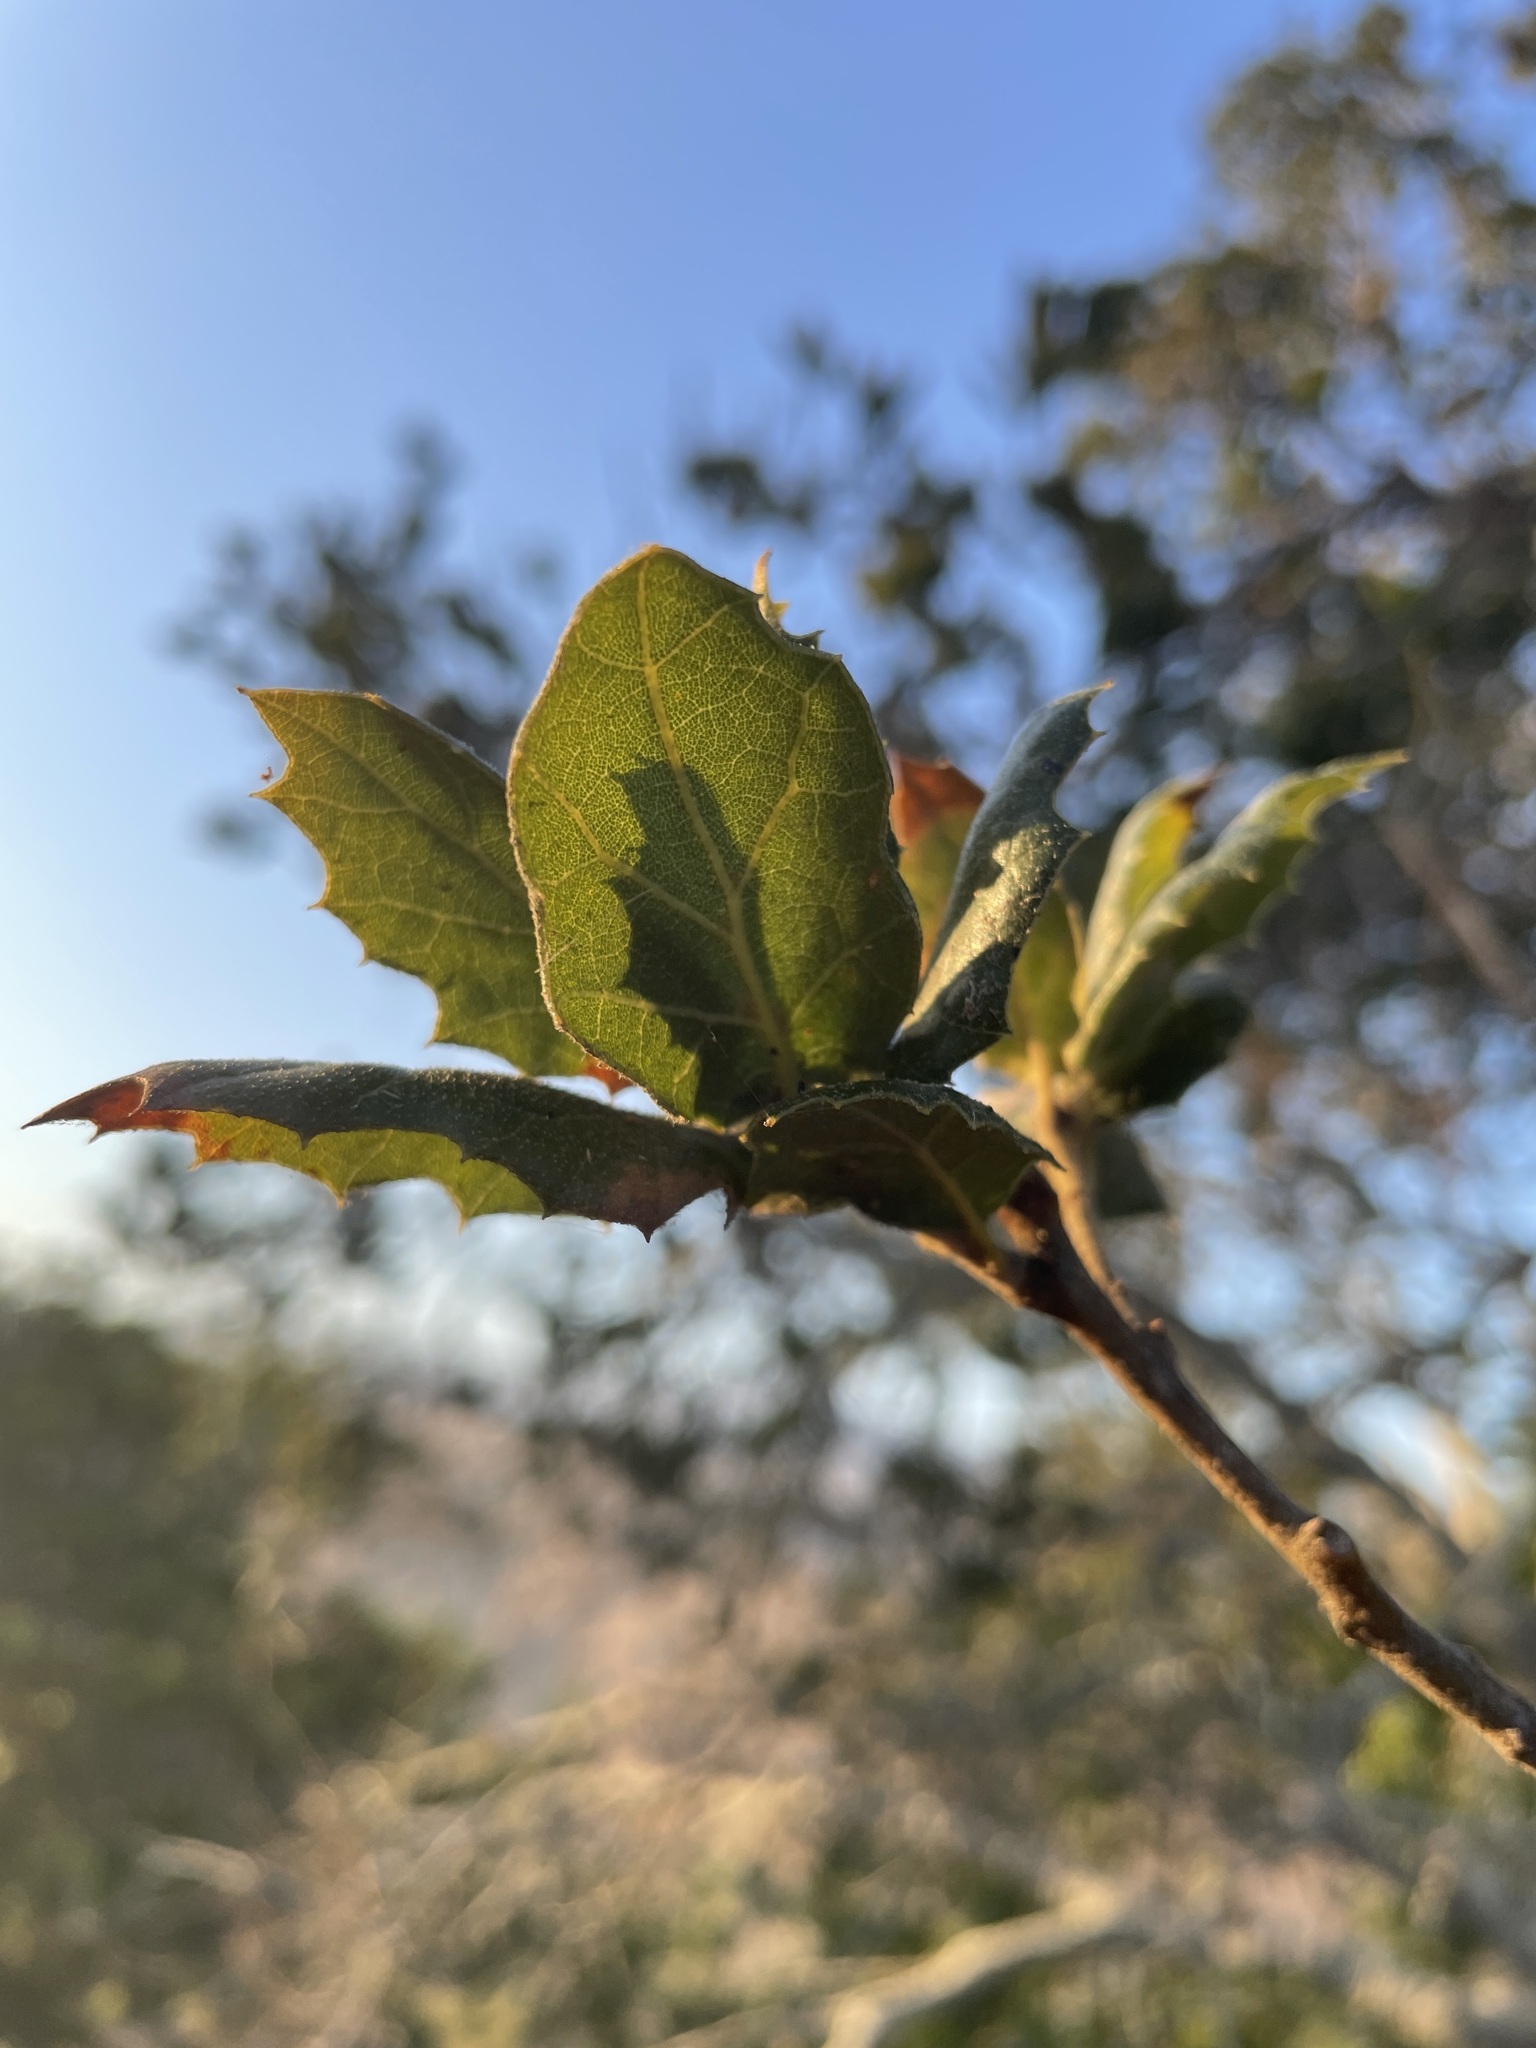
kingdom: Plantae
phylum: Tracheophyta
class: Magnoliopsida
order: Fagales
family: Fagaceae
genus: Quercus
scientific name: Quercus agrifolia
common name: California live oak
